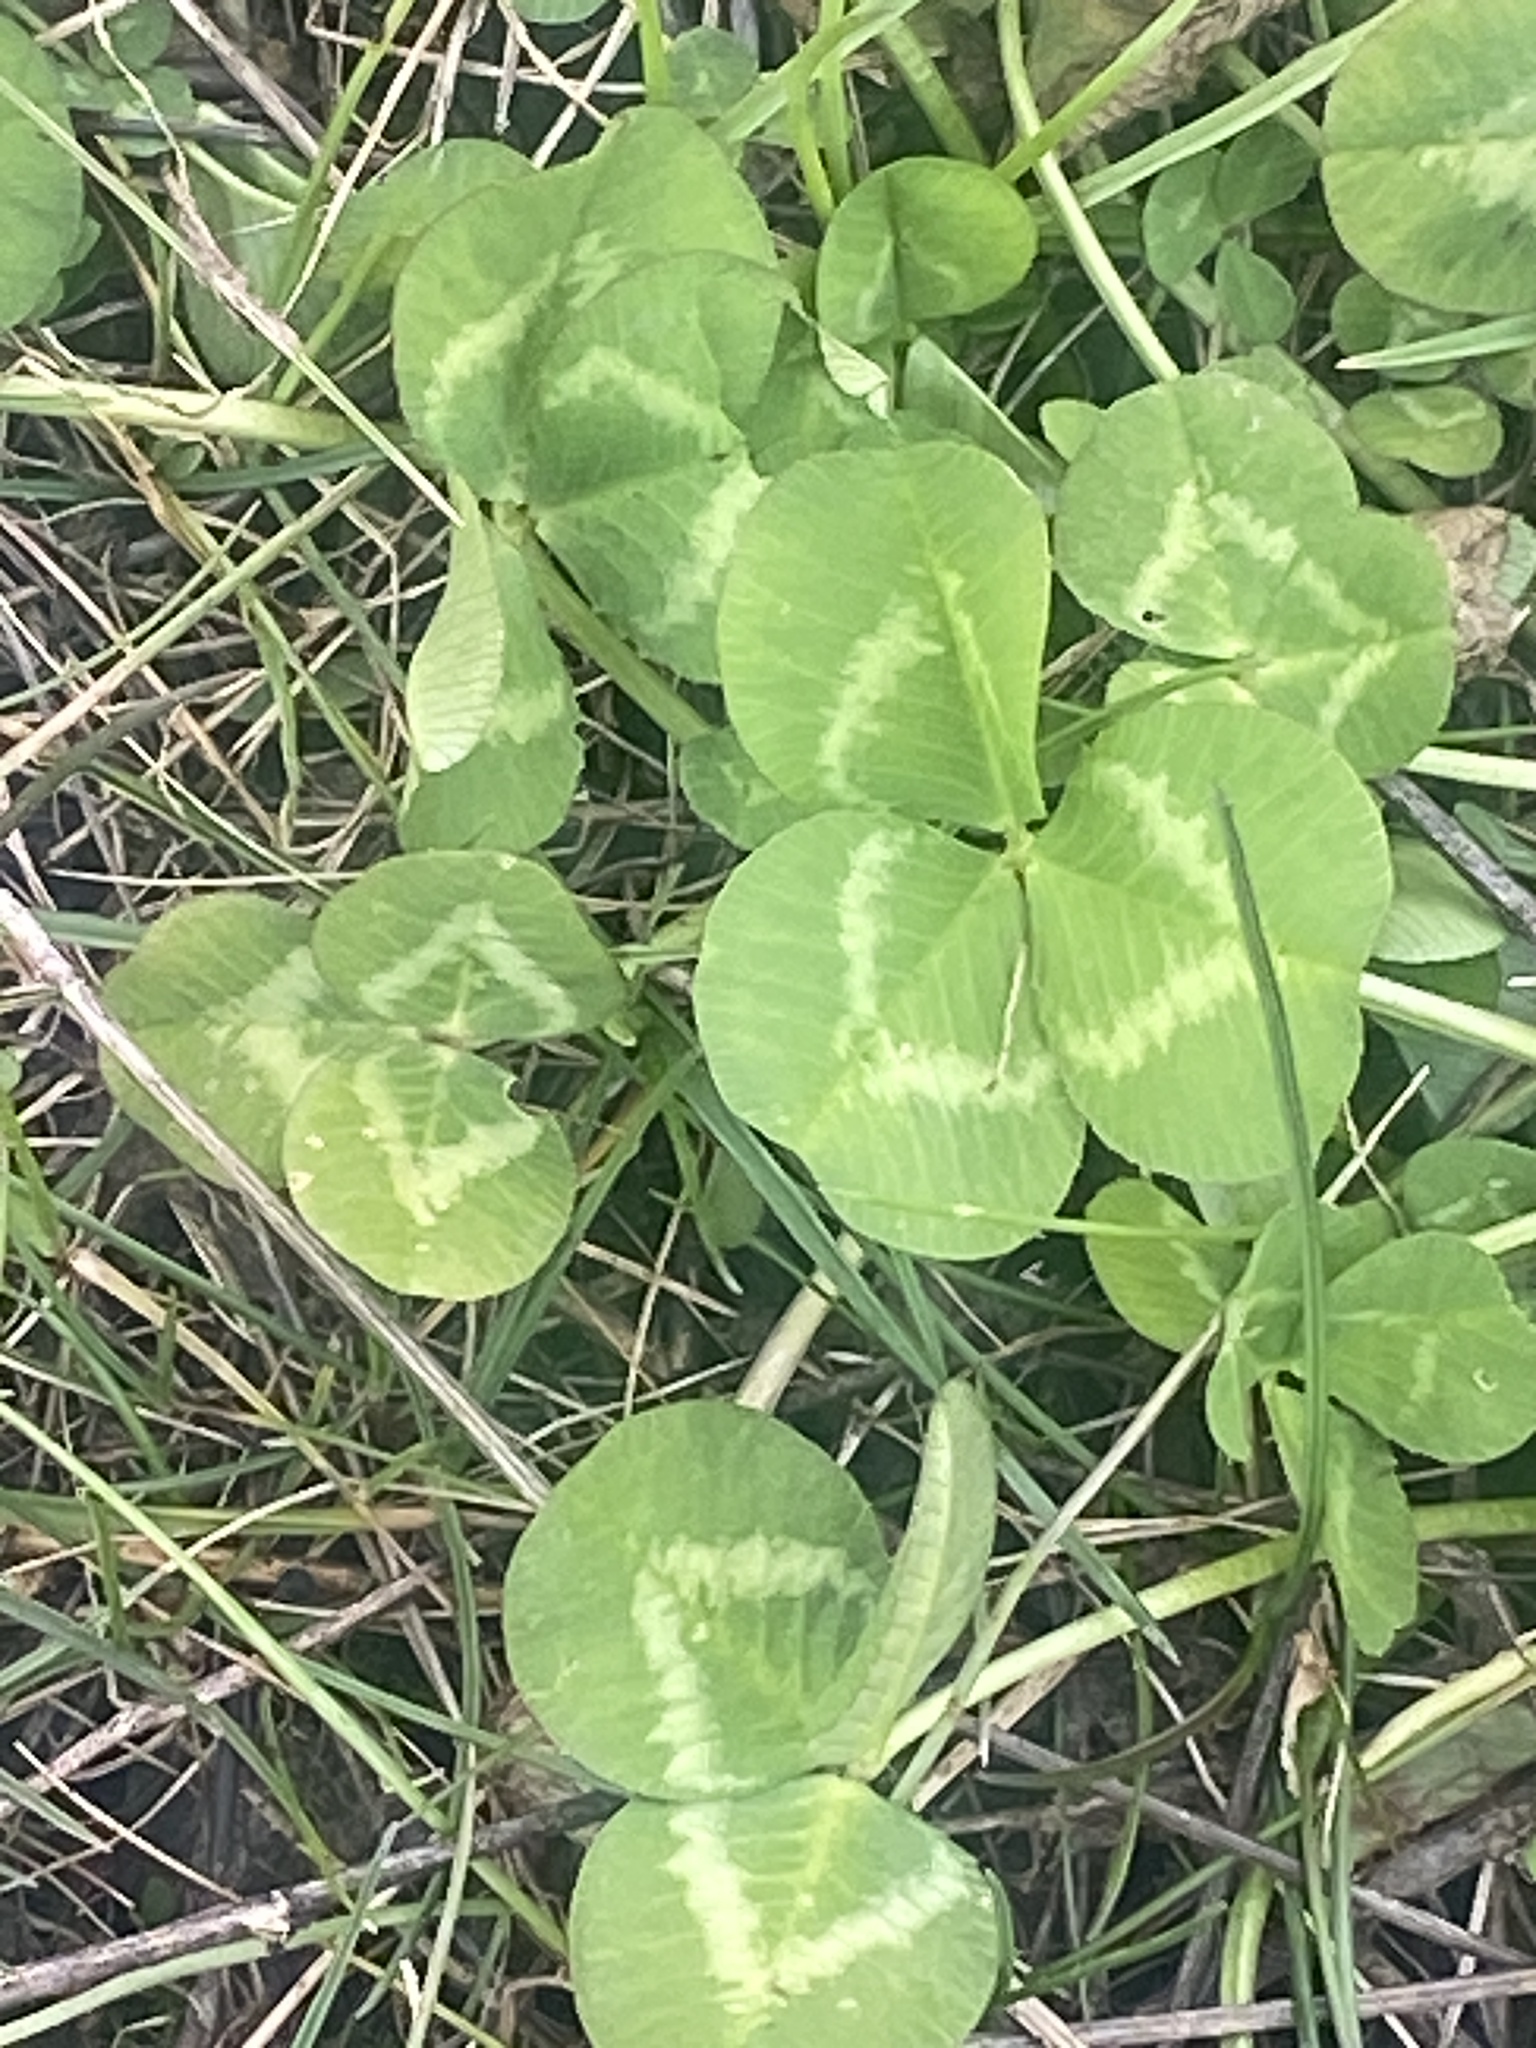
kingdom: Plantae
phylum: Tracheophyta
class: Magnoliopsida
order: Fabales
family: Fabaceae
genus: Trifolium
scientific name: Trifolium repens
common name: White clover
